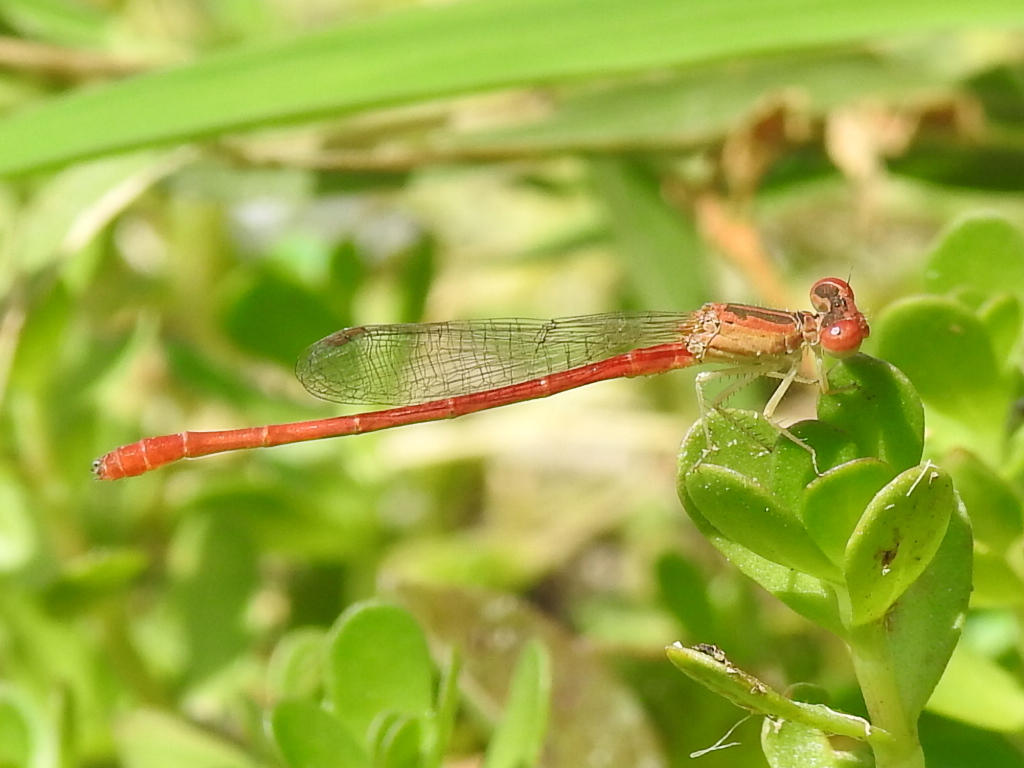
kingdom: Animalia
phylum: Arthropoda
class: Insecta
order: Odonata
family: Coenagrionidae
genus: Telebasis
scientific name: Telebasis salva
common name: Desert firetail
